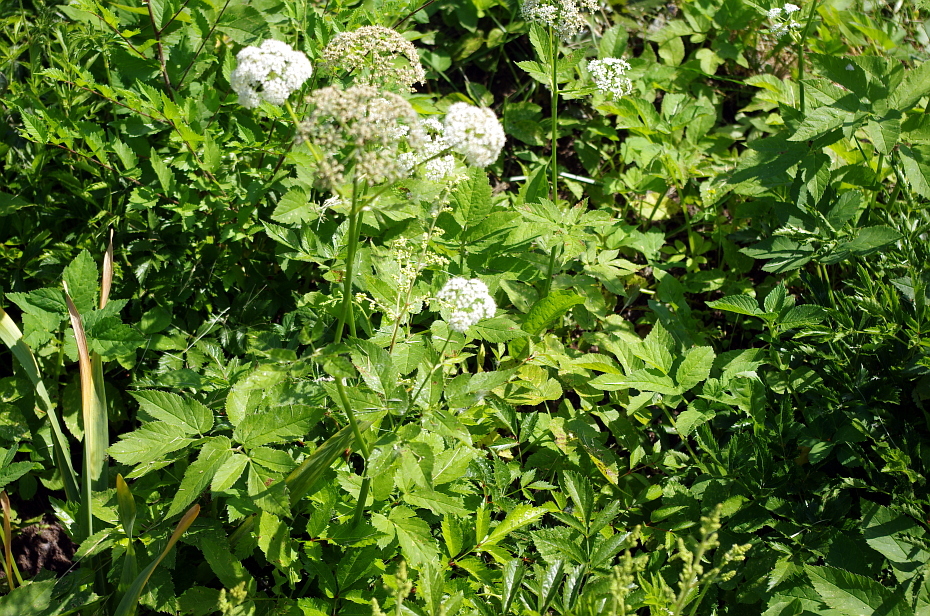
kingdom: Plantae
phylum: Tracheophyta
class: Magnoliopsida
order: Apiales
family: Apiaceae
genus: Aegopodium
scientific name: Aegopodium podagraria
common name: Ground-elder
